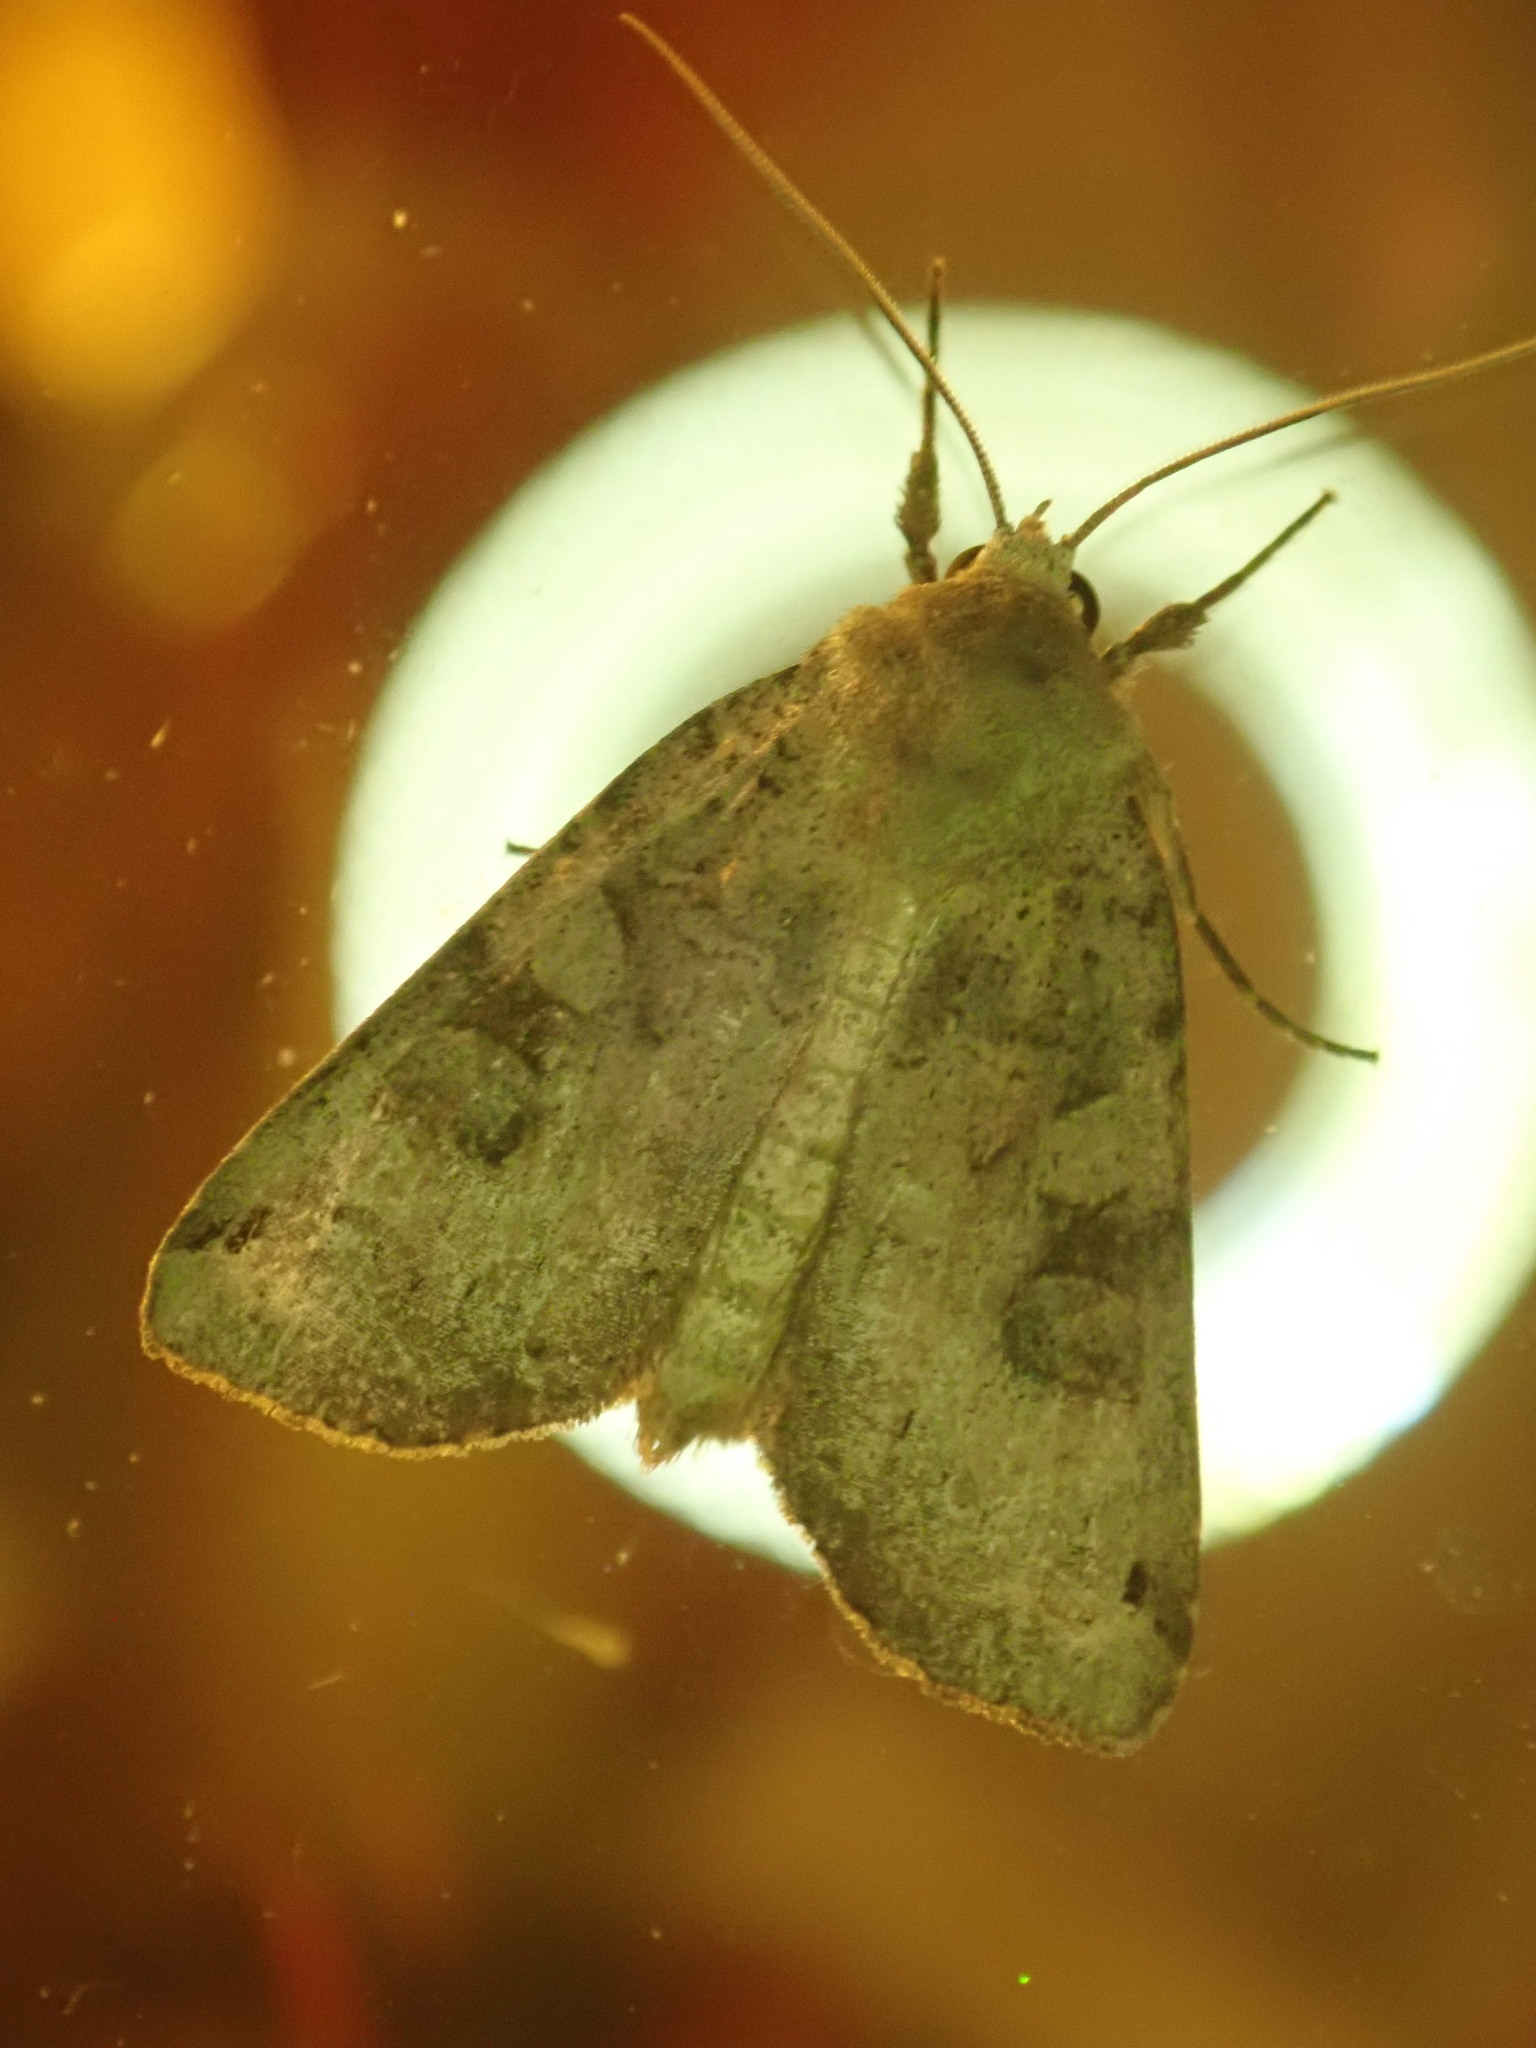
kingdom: Animalia
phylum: Arthropoda
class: Insecta
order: Lepidoptera
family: Noctuidae
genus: Xestia
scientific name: Xestia smithii
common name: Smith's dart
